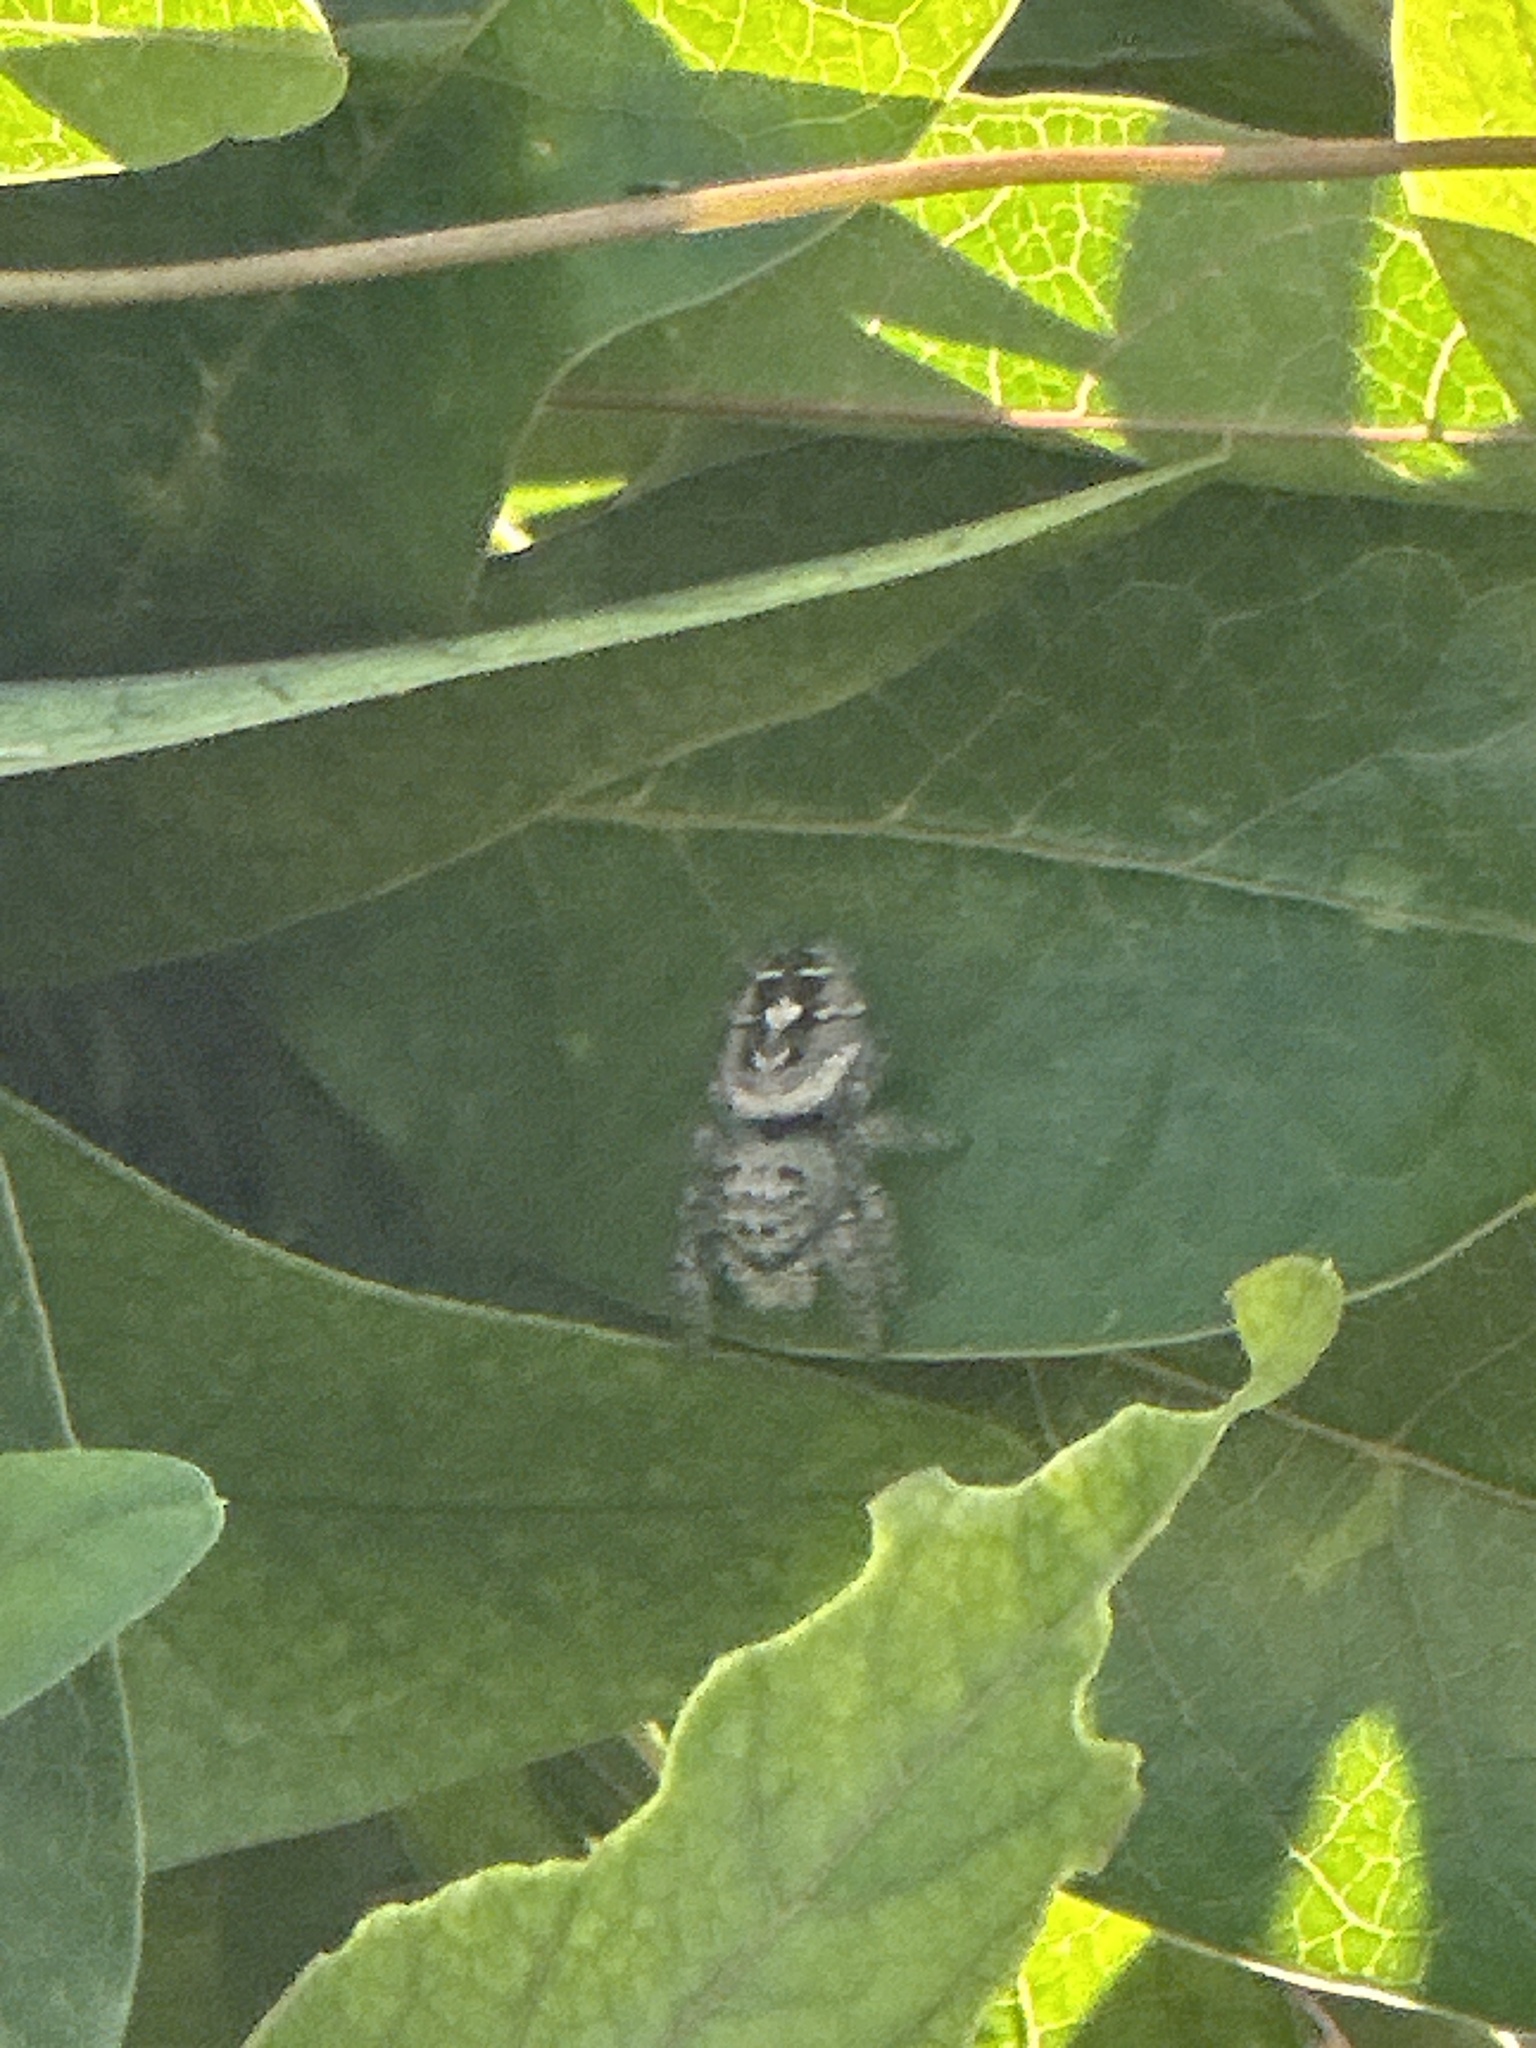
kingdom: Animalia
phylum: Arthropoda
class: Arachnida
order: Araneae
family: Salticidae
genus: Phidippus
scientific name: Phidippus carolinensis
